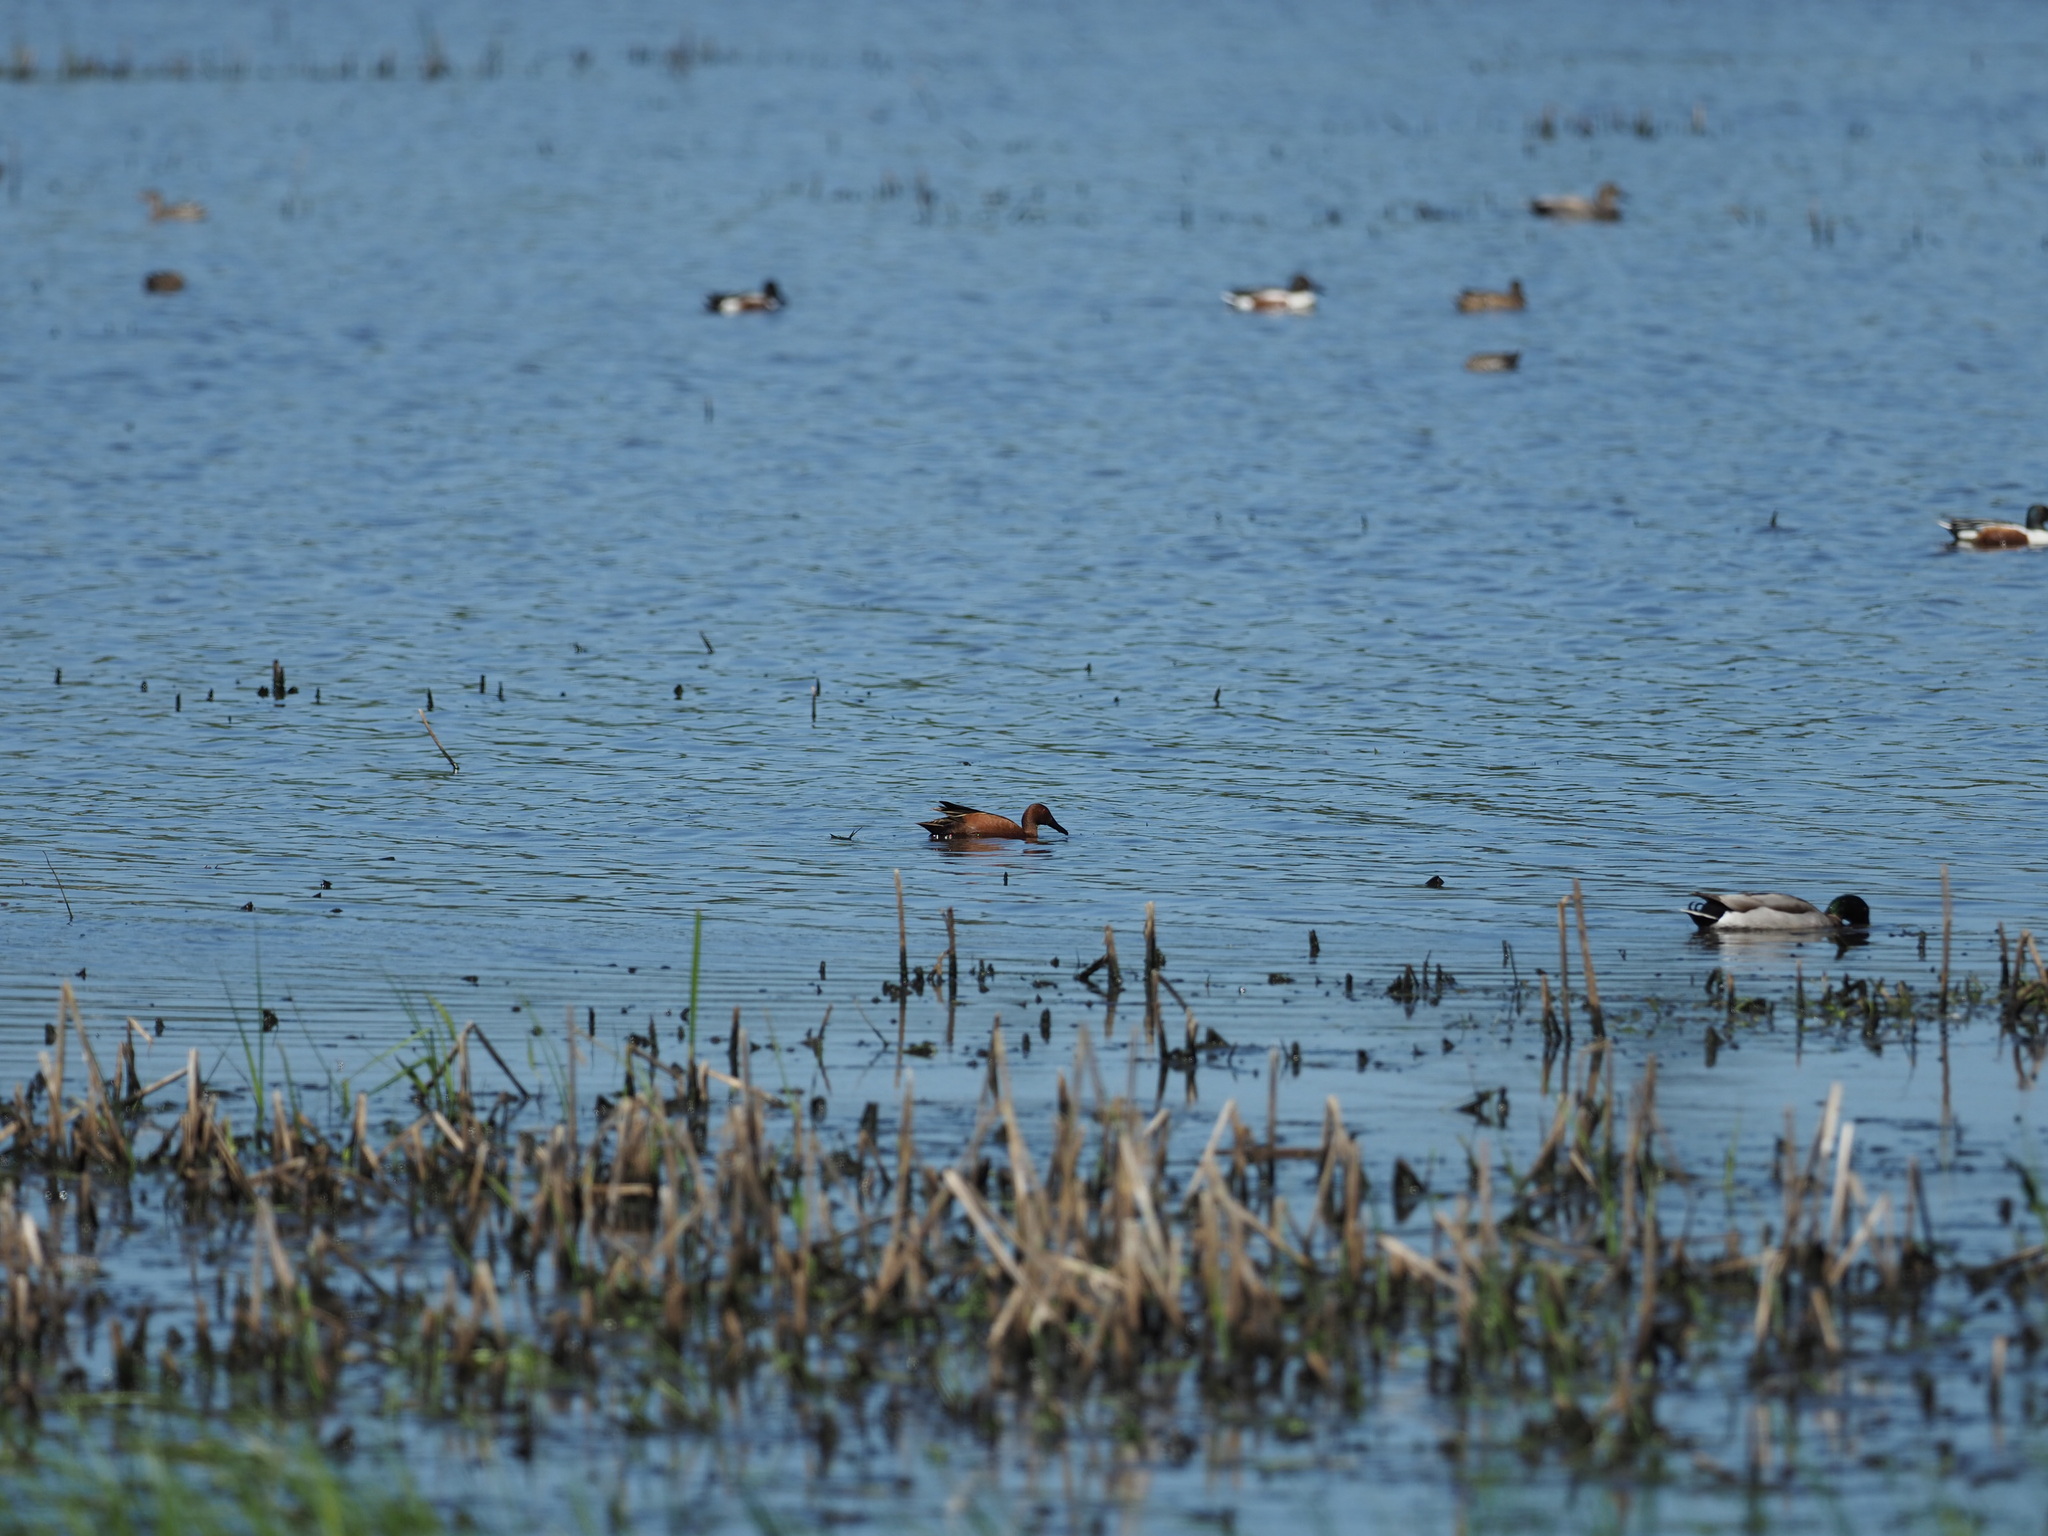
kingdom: Animalia
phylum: Chordata
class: Aves
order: Anseriformes
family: Anatidae
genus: Spatula
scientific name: Spatula cyanoptera
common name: Cinnamon teal
